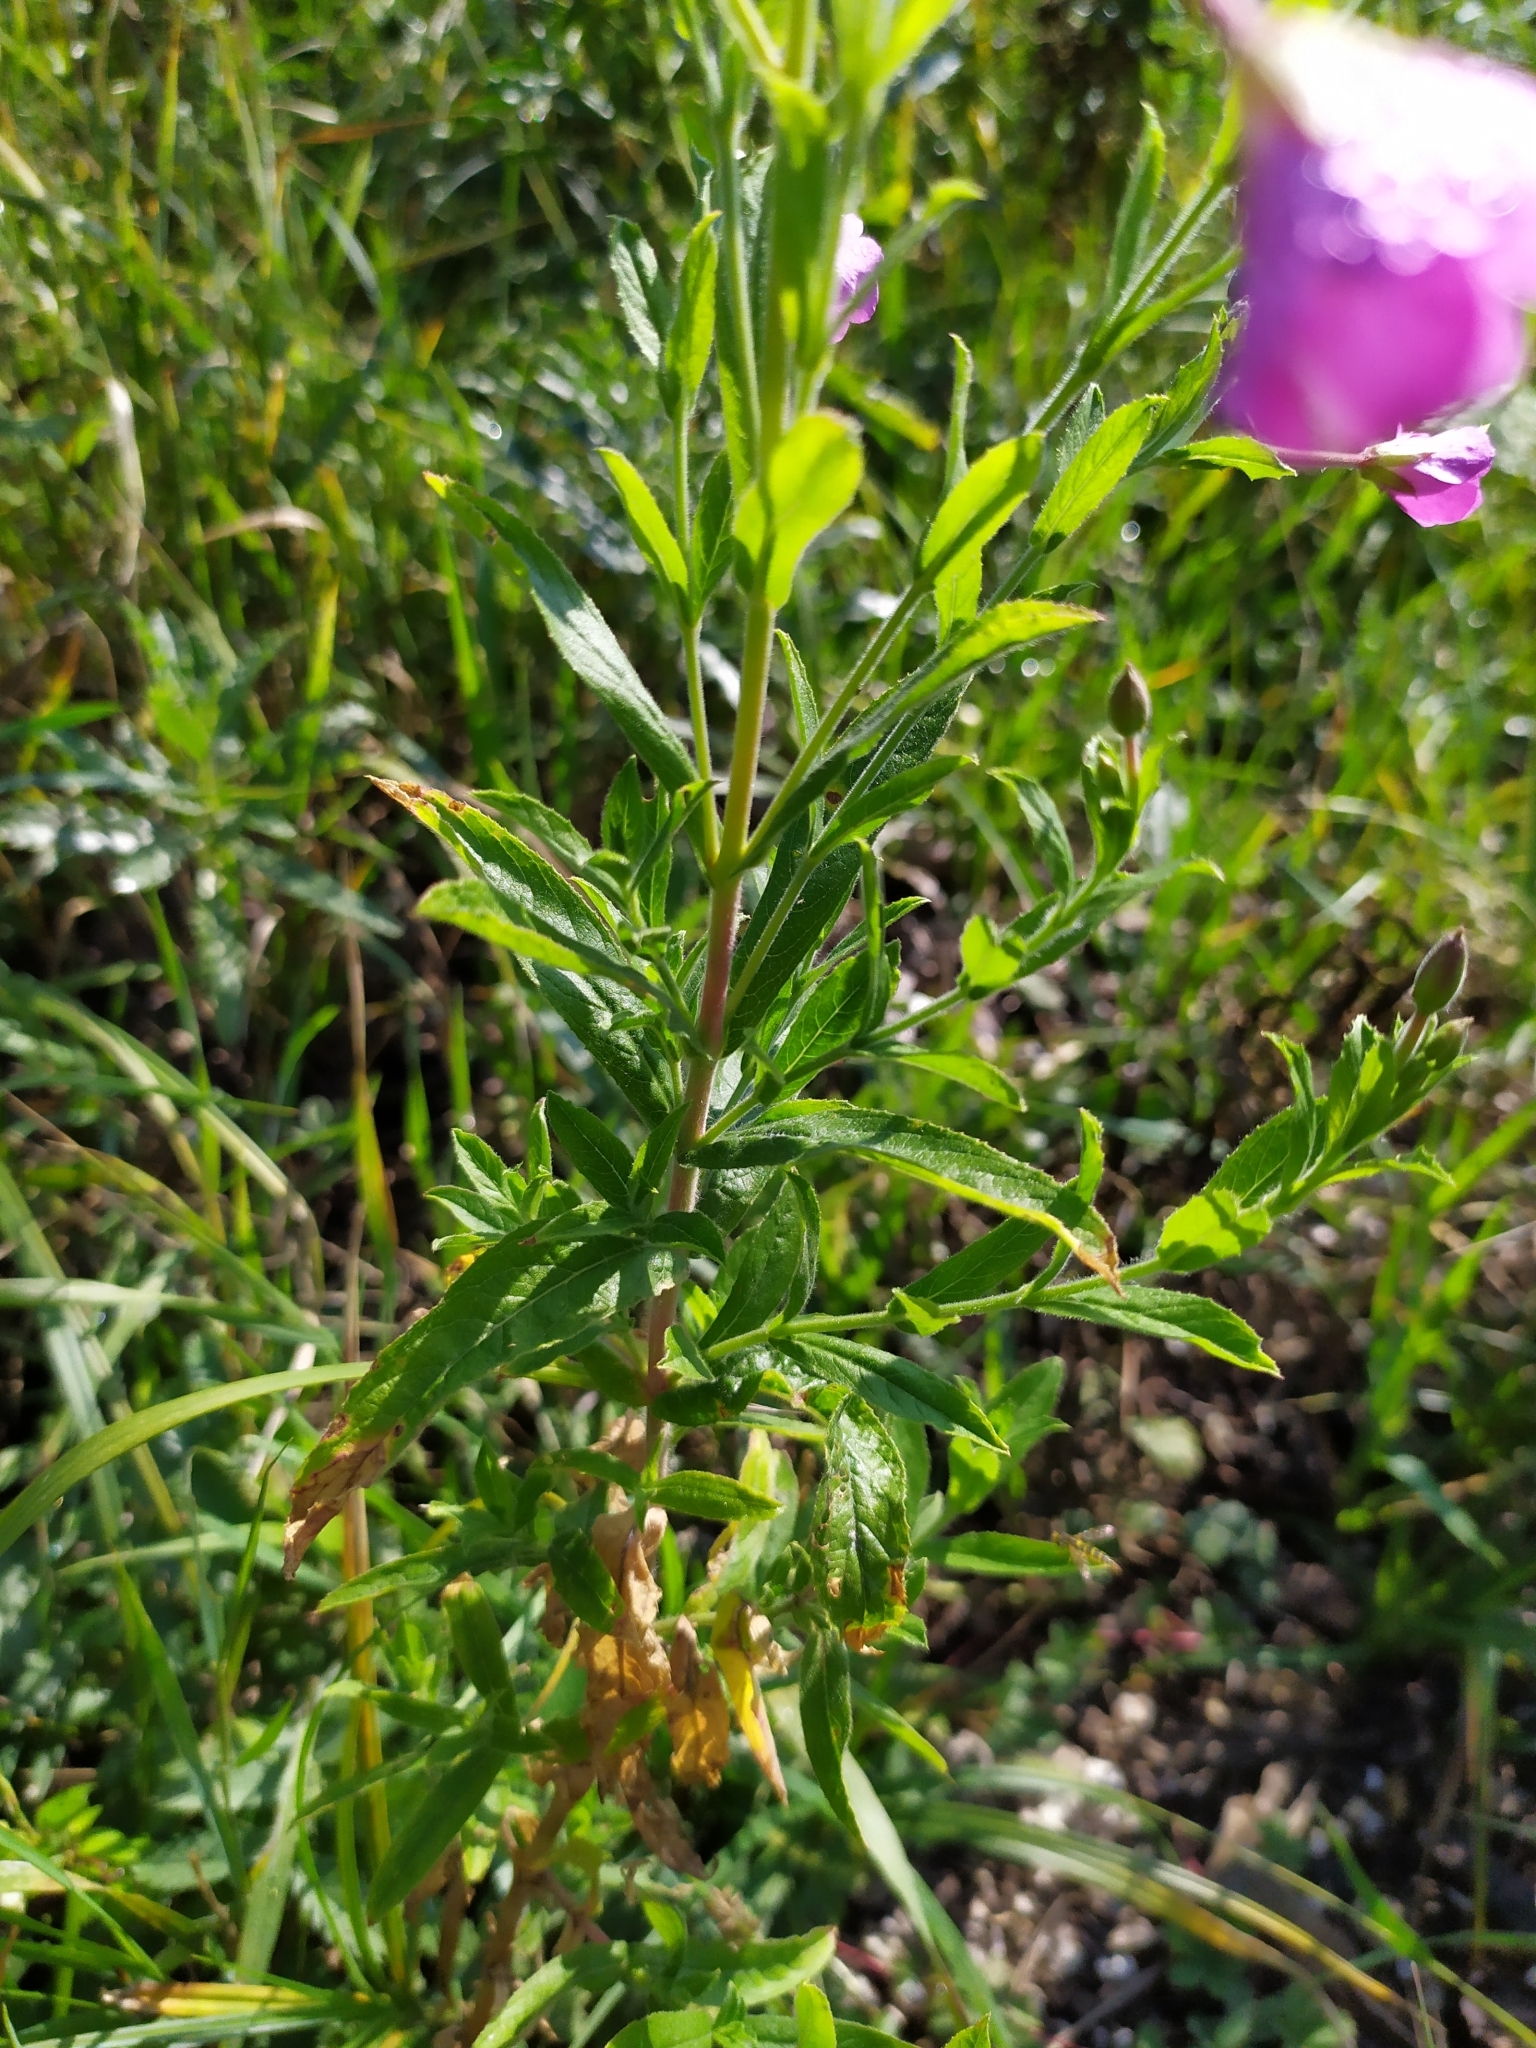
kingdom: Plantae
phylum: Tracheophyta
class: Magnoliopsida
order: Myrtales
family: Onagraceae
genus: Epilobium
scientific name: Epilobium hirsutum
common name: Great willowherb
